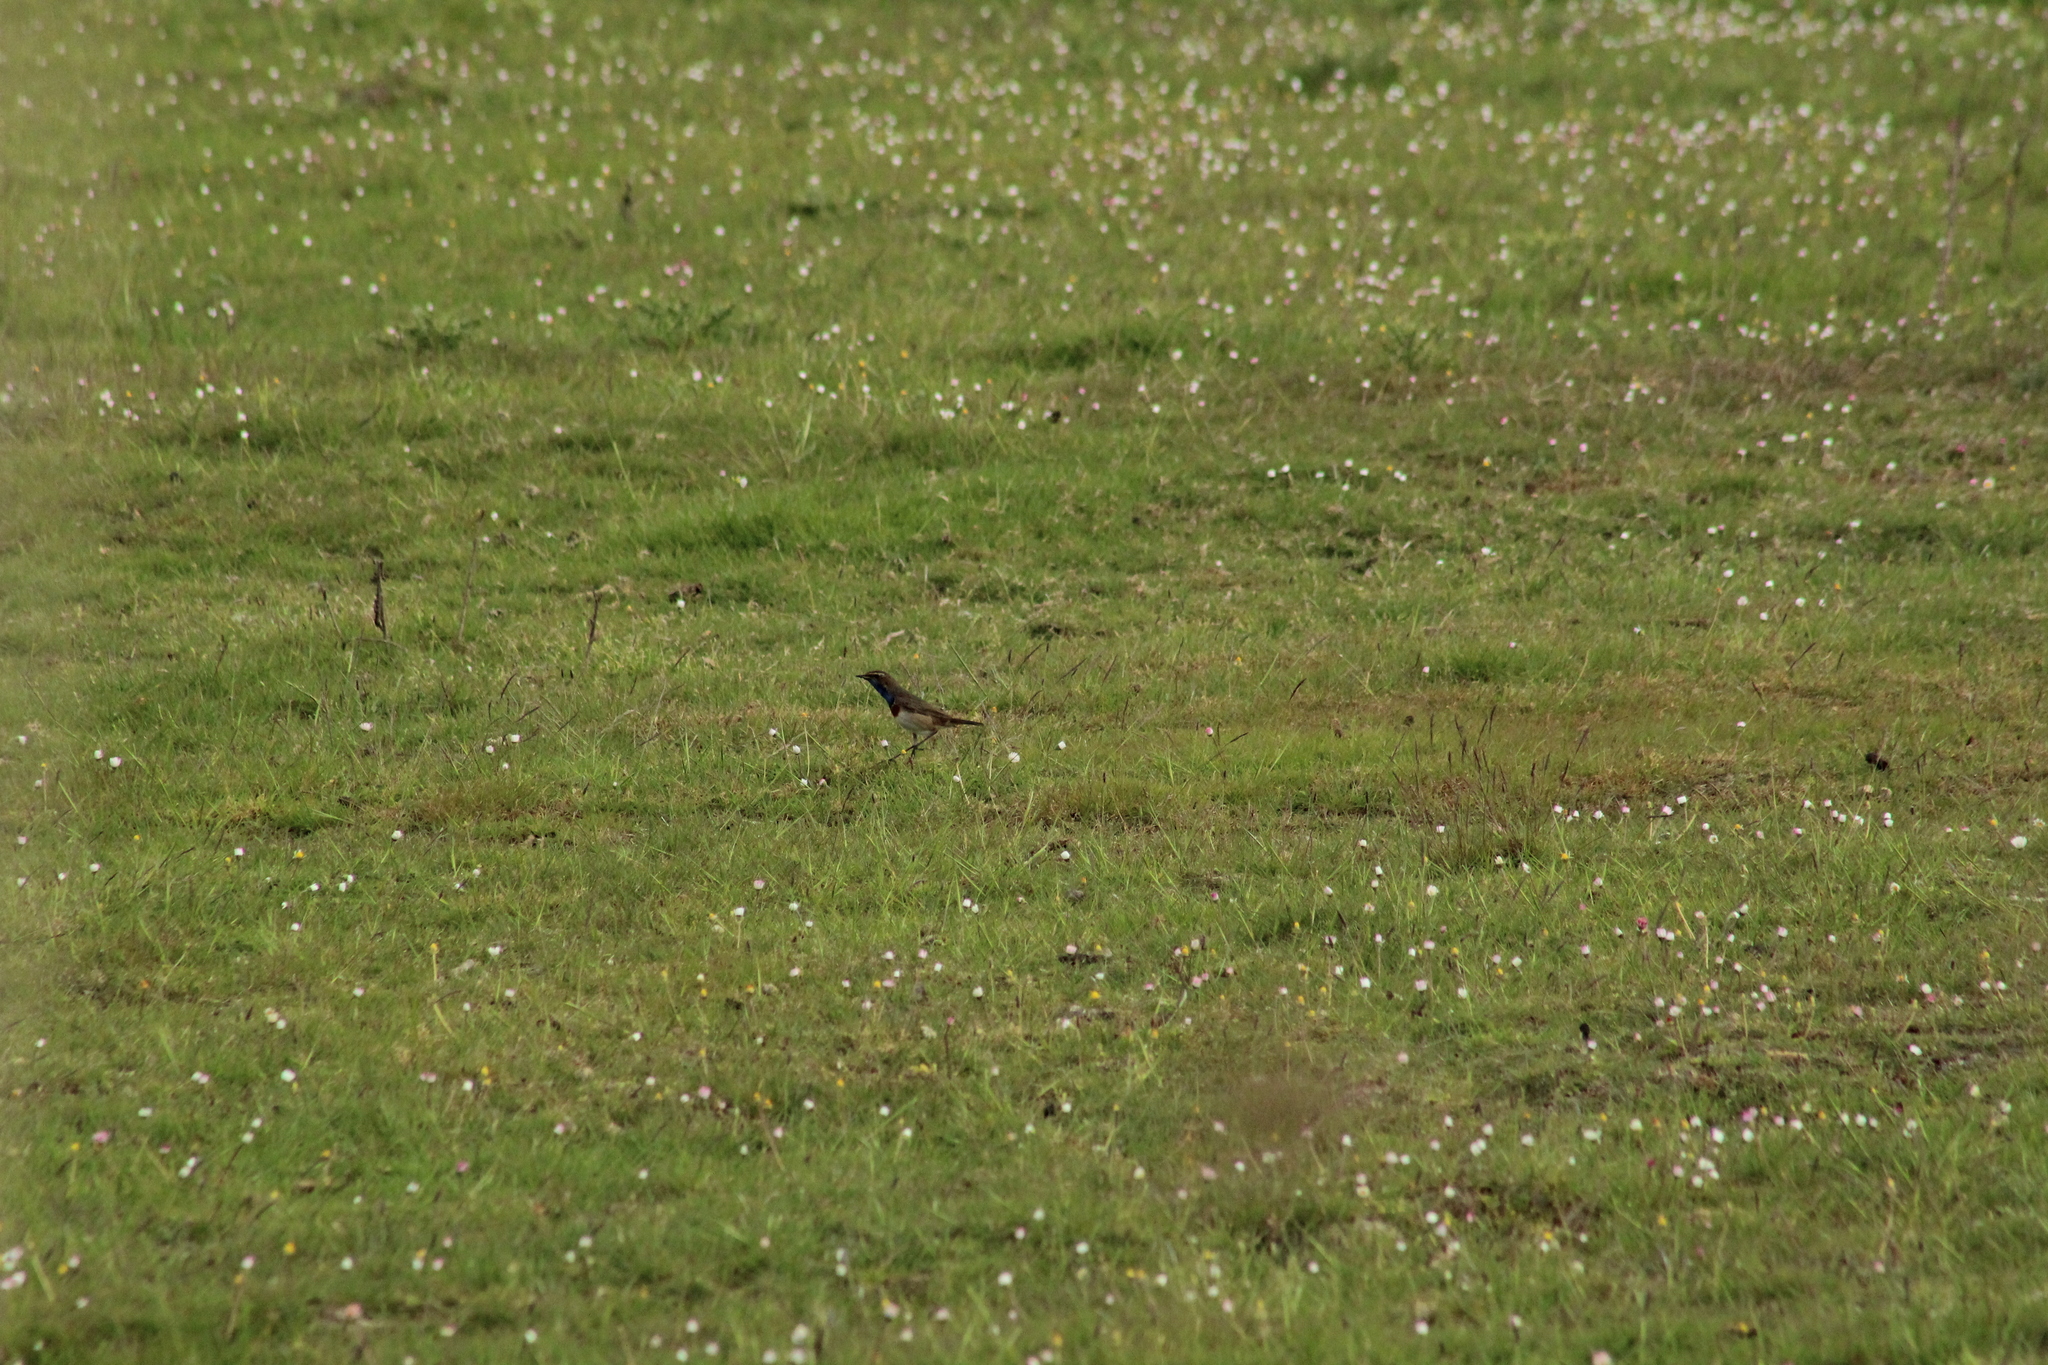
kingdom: Animalia
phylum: Chordata
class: Aves
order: Passeriformes
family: Muscicapidae
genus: Luscinia
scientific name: Luscinia svecica
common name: Bluethroat
